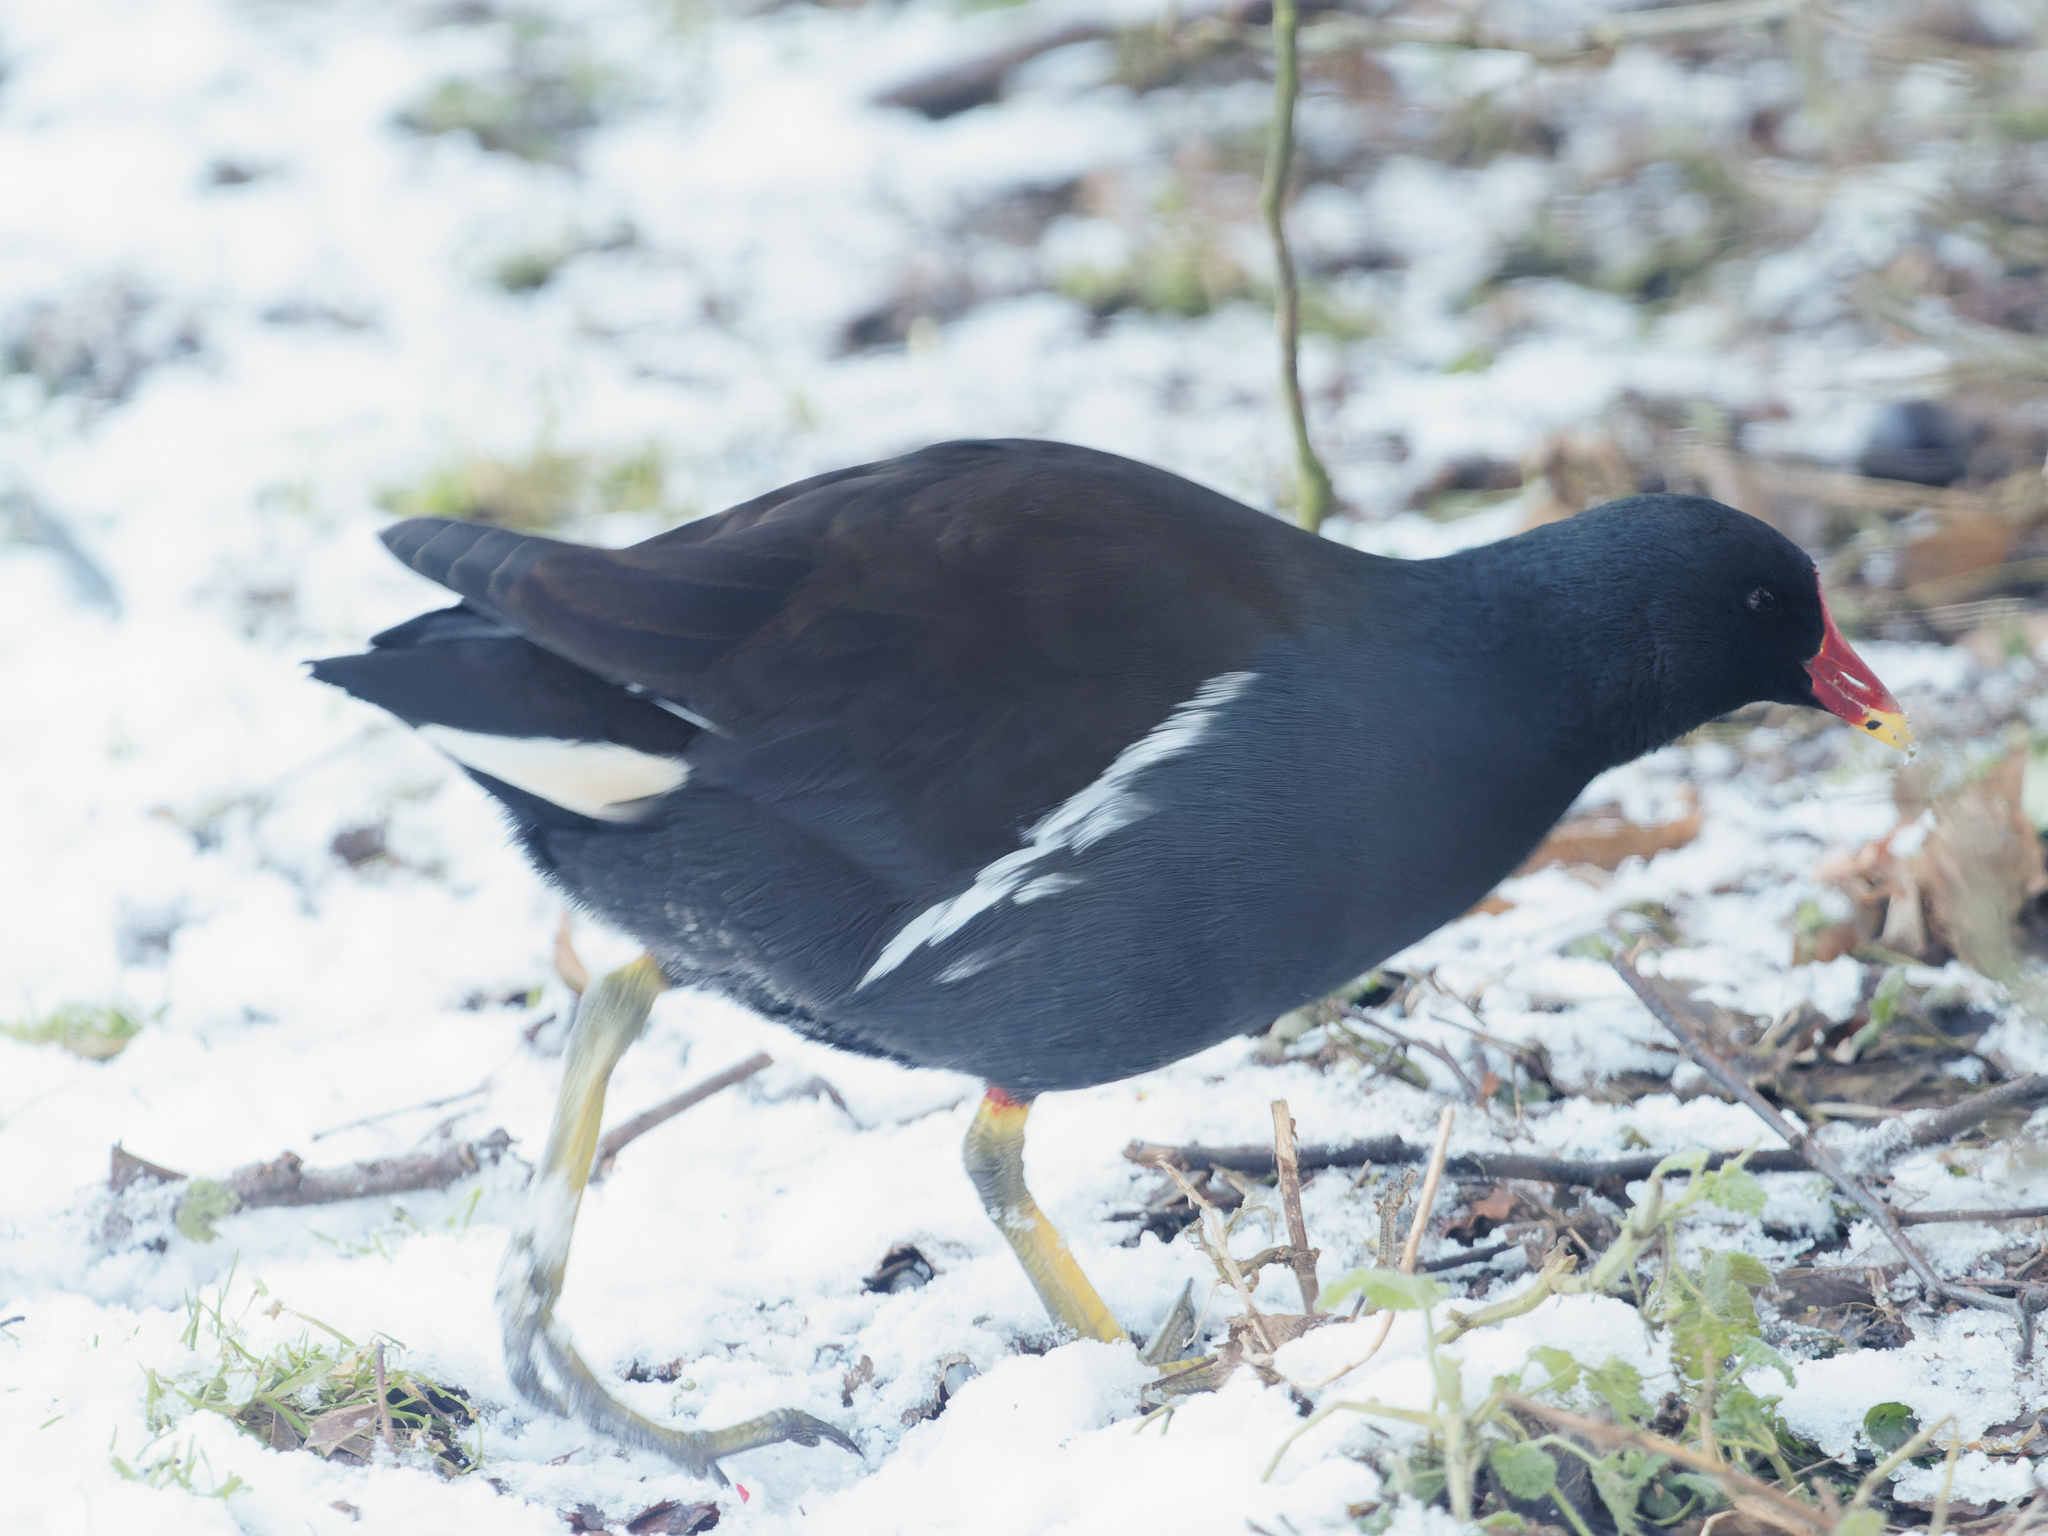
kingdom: Animalia
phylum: Chordata
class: Aves
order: Gruiformes
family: Rallidae
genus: Gallinula
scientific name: Gallinula chloropus
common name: Common moorhen
